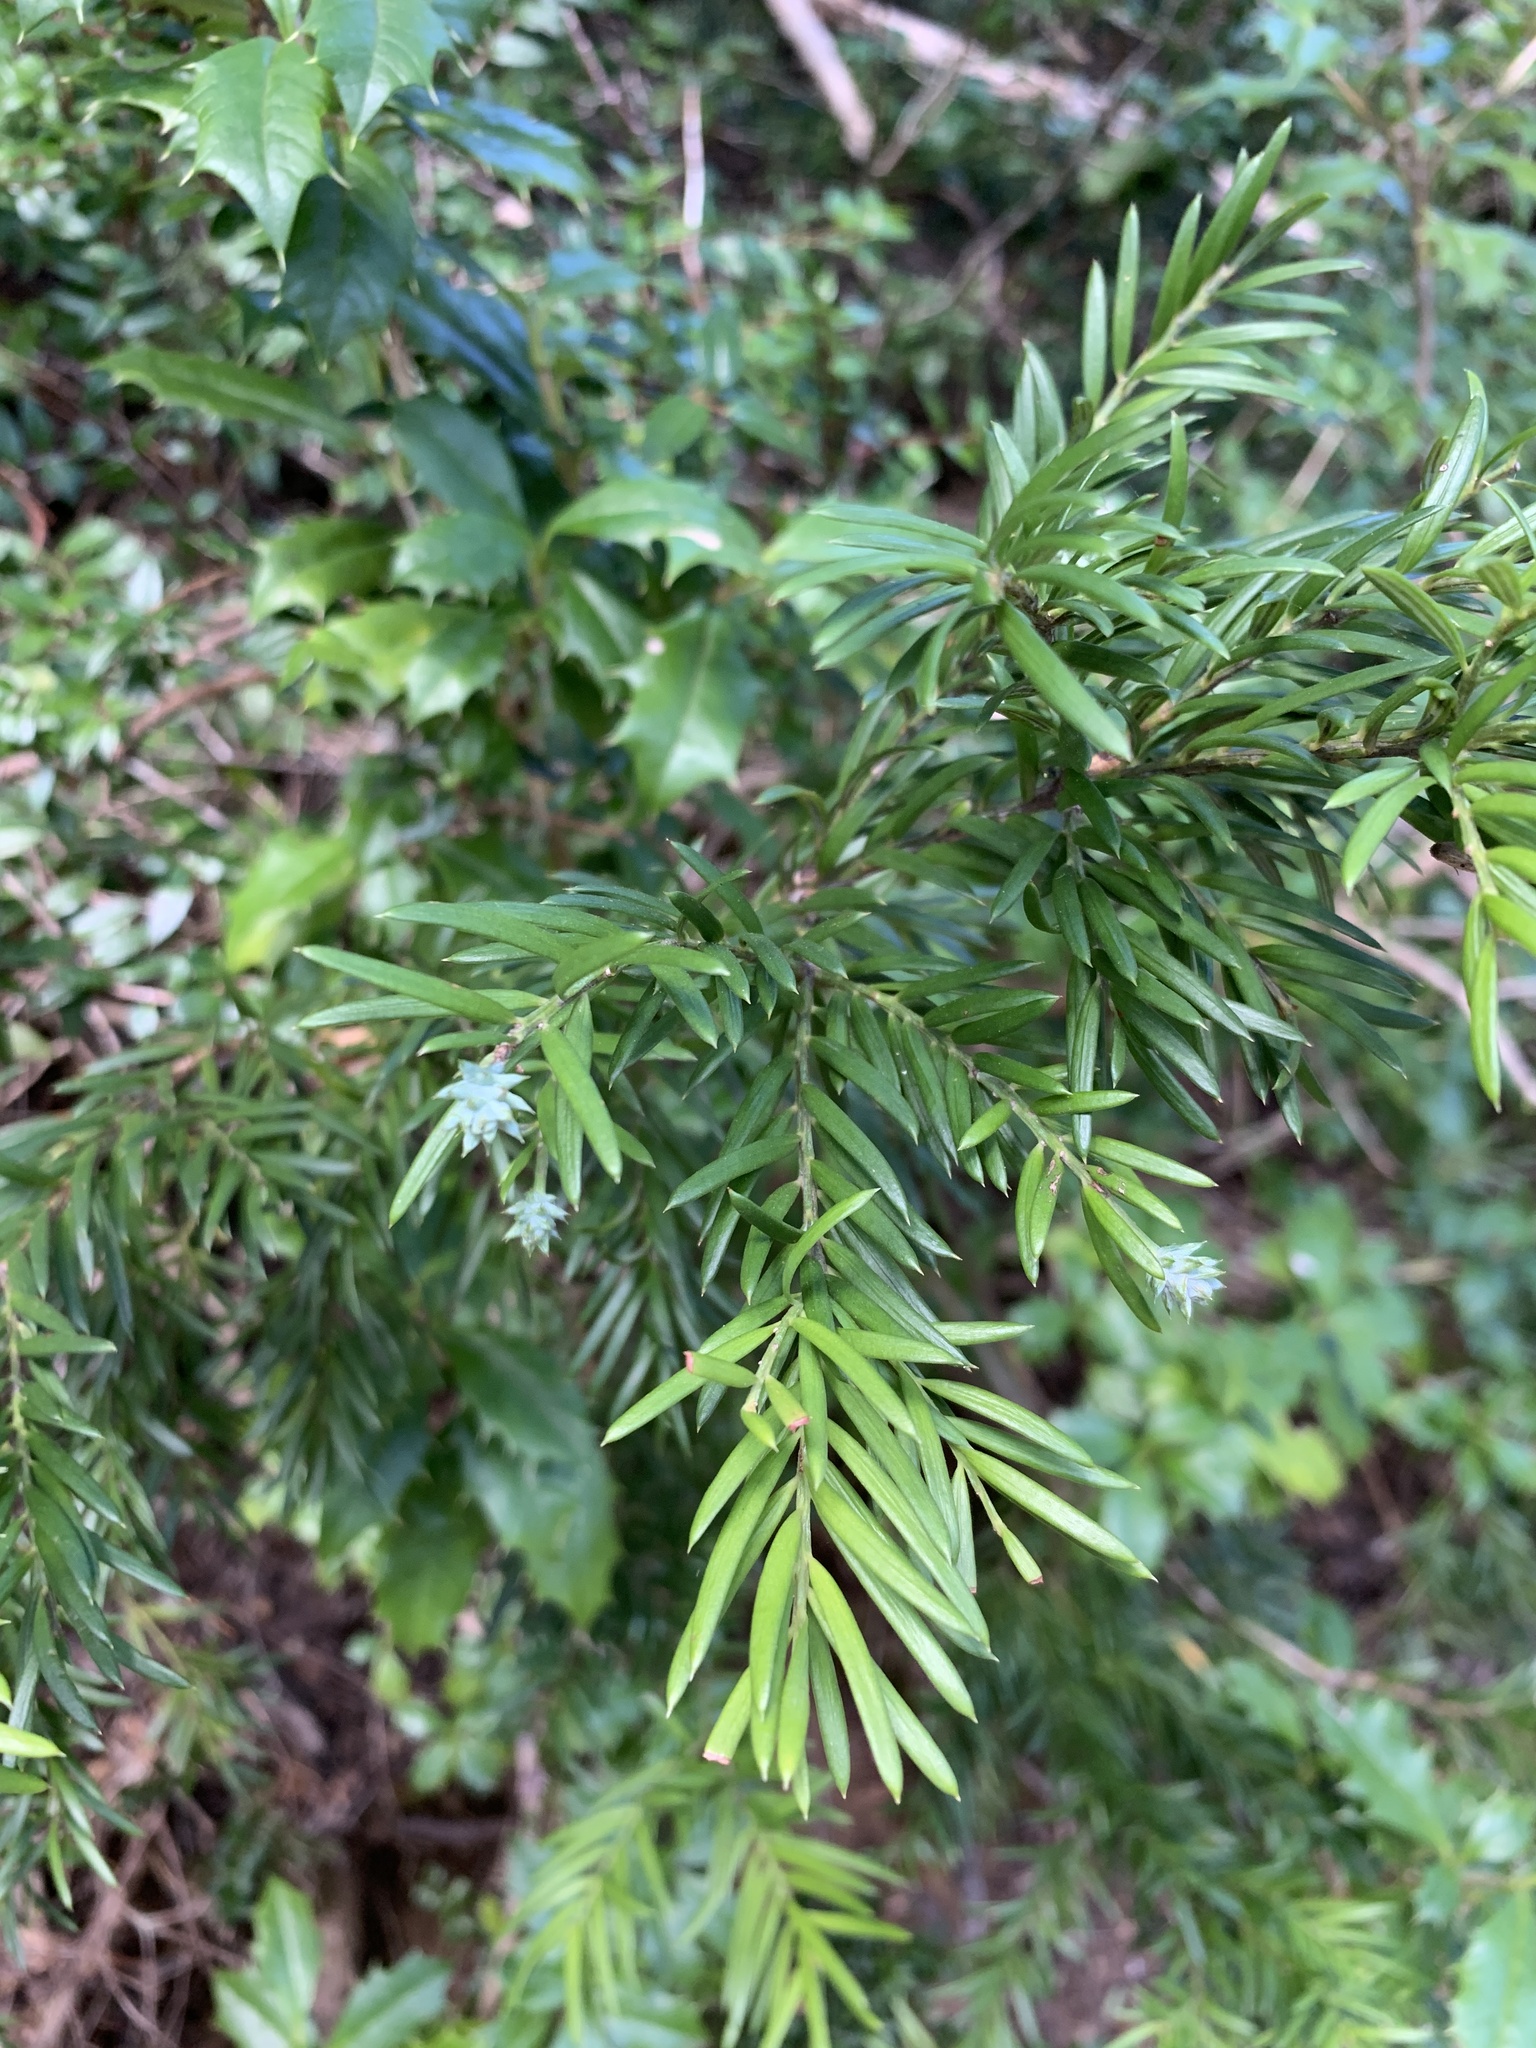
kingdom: Plantae
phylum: Tracheophyta
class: Pinopsida
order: Pinales
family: Podocarpaceae
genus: Saxegothaea
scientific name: Saxegothaea conspicua
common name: Prince albert's yew
